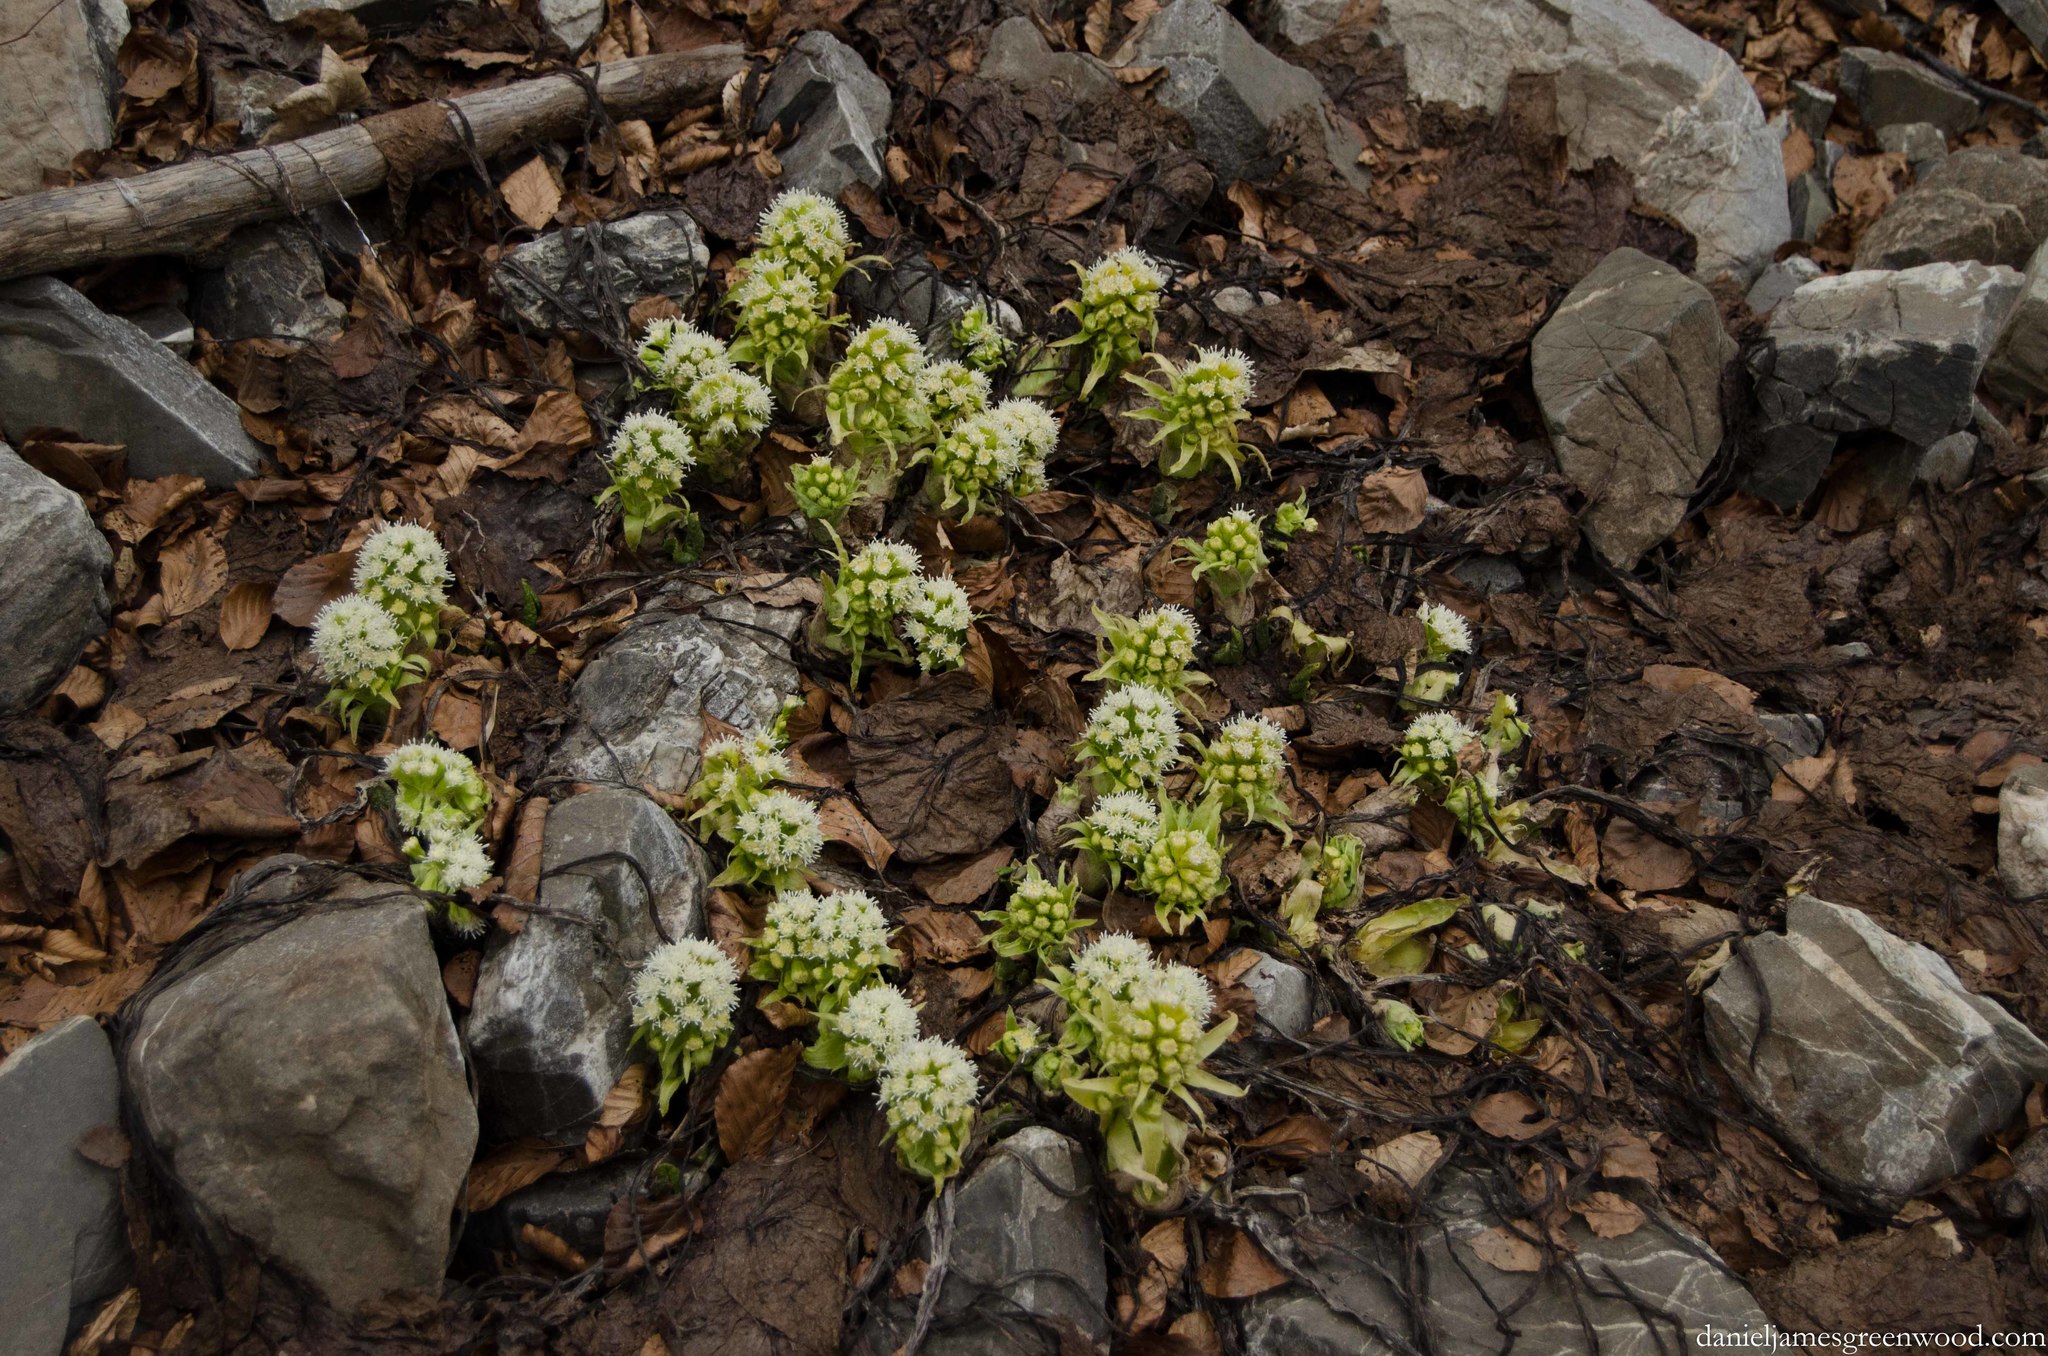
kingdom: Plantae
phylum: Tracheophyta
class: Magnoliopsida
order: Asterales
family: Asteraceae
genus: Petasites
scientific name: Petasites albus
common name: White butterbur
